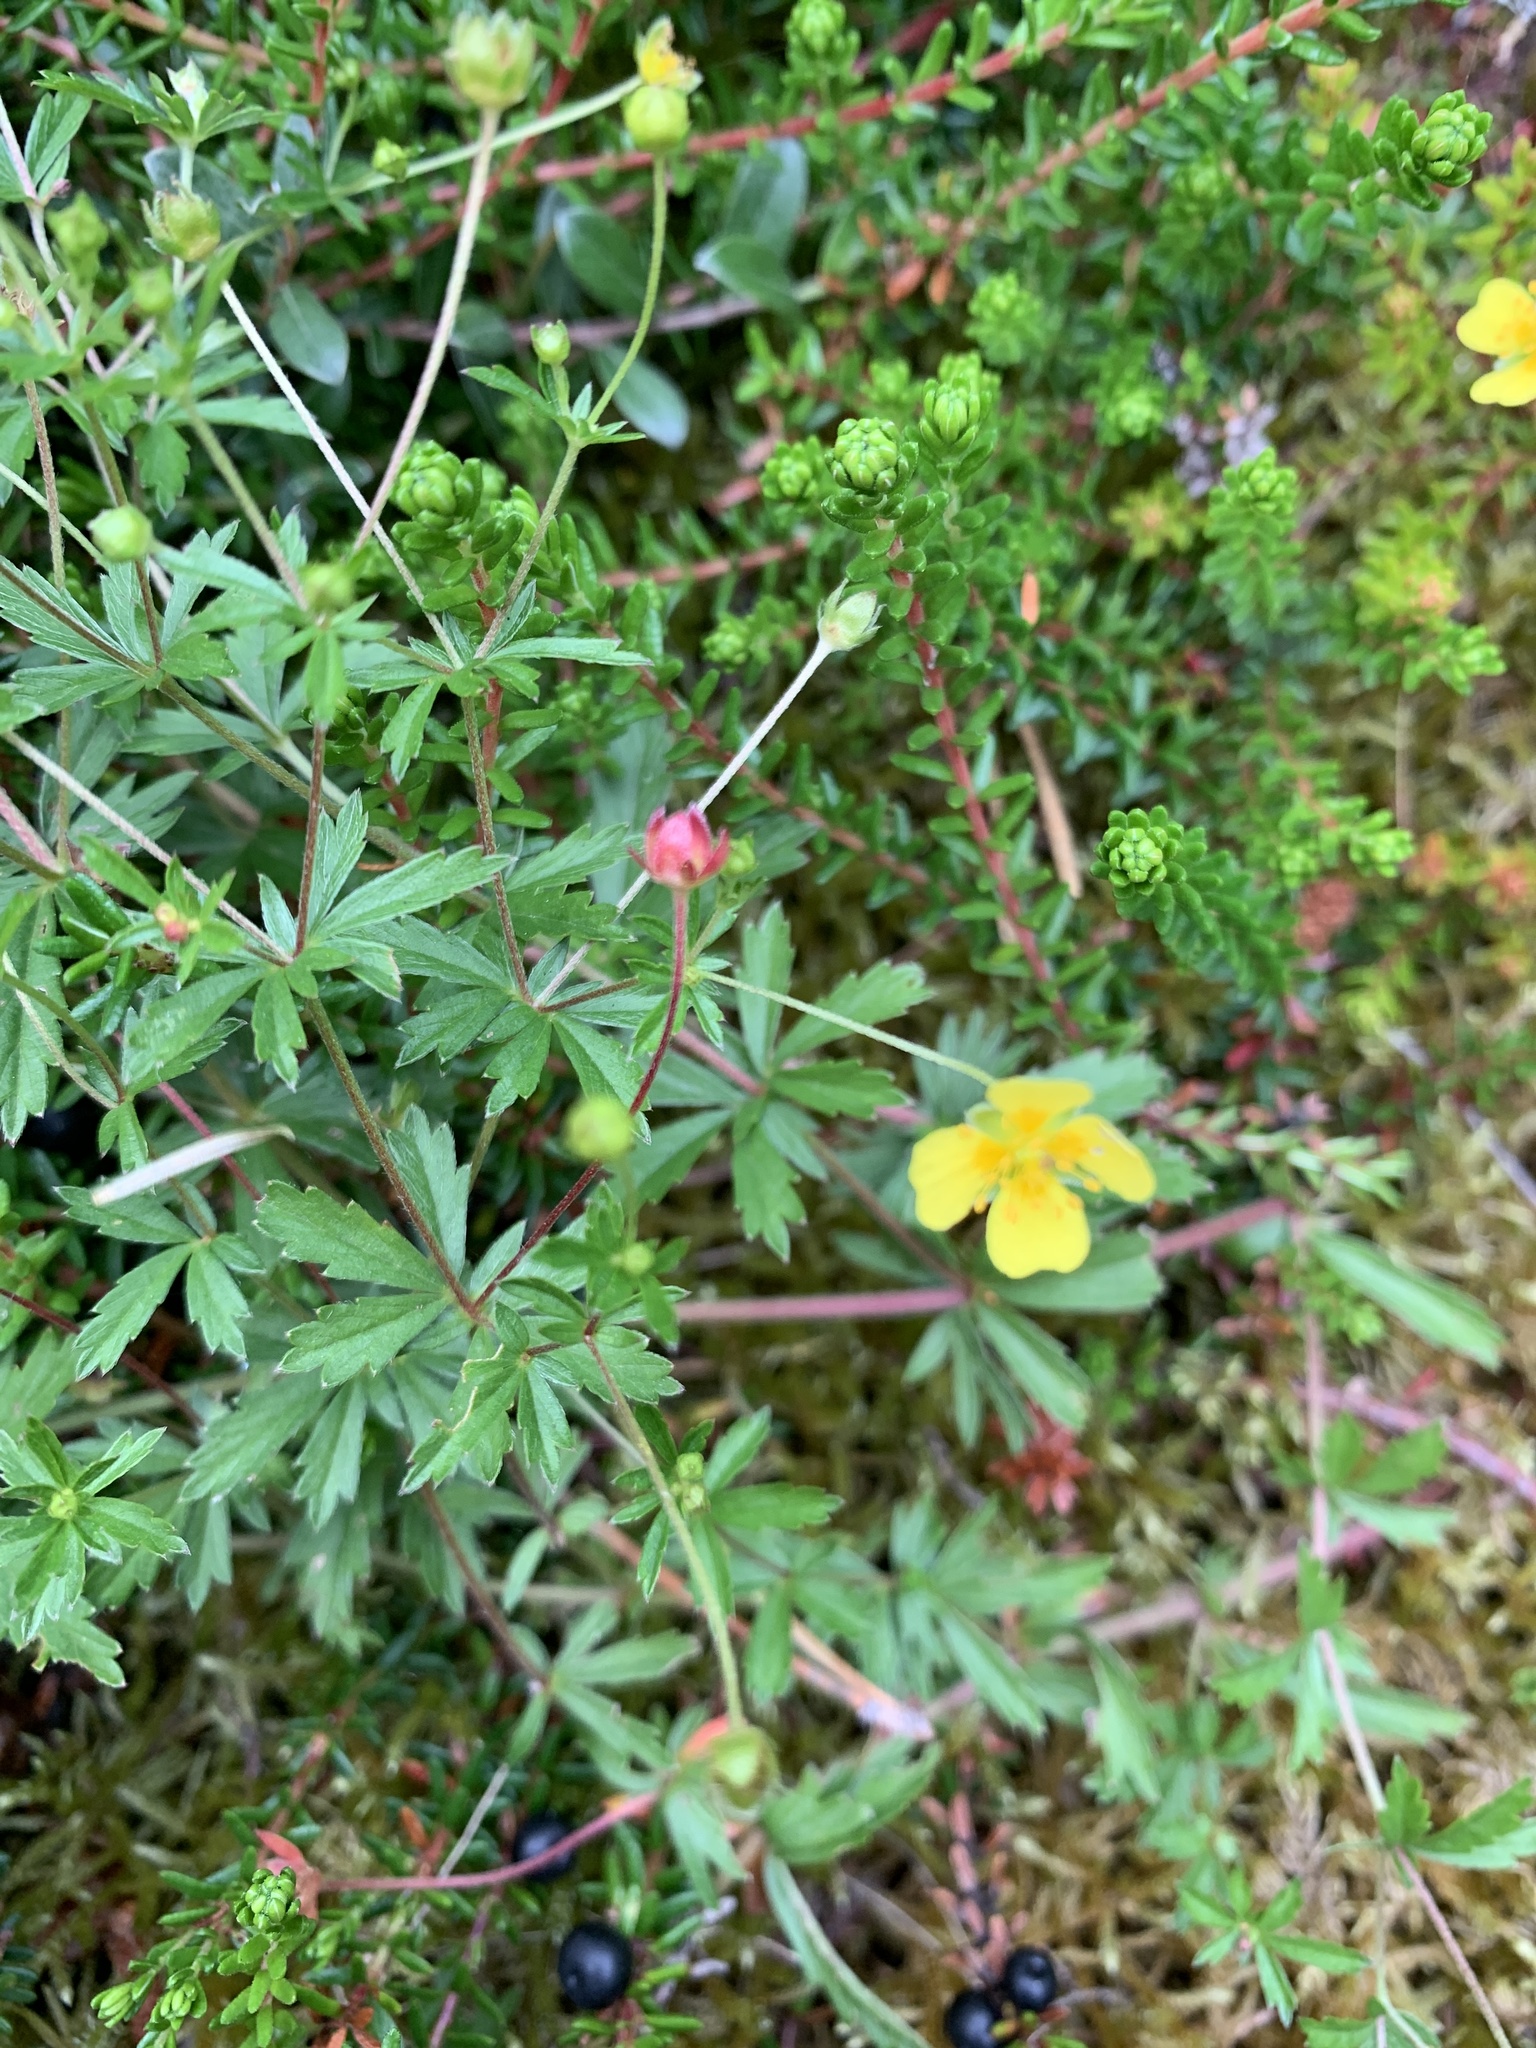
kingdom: Plantae
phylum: Tracheophyta
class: Magnoliopsida
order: Rosales
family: Rosaceae
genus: Potentilla
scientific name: Potentilla erecta
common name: Tormentil
